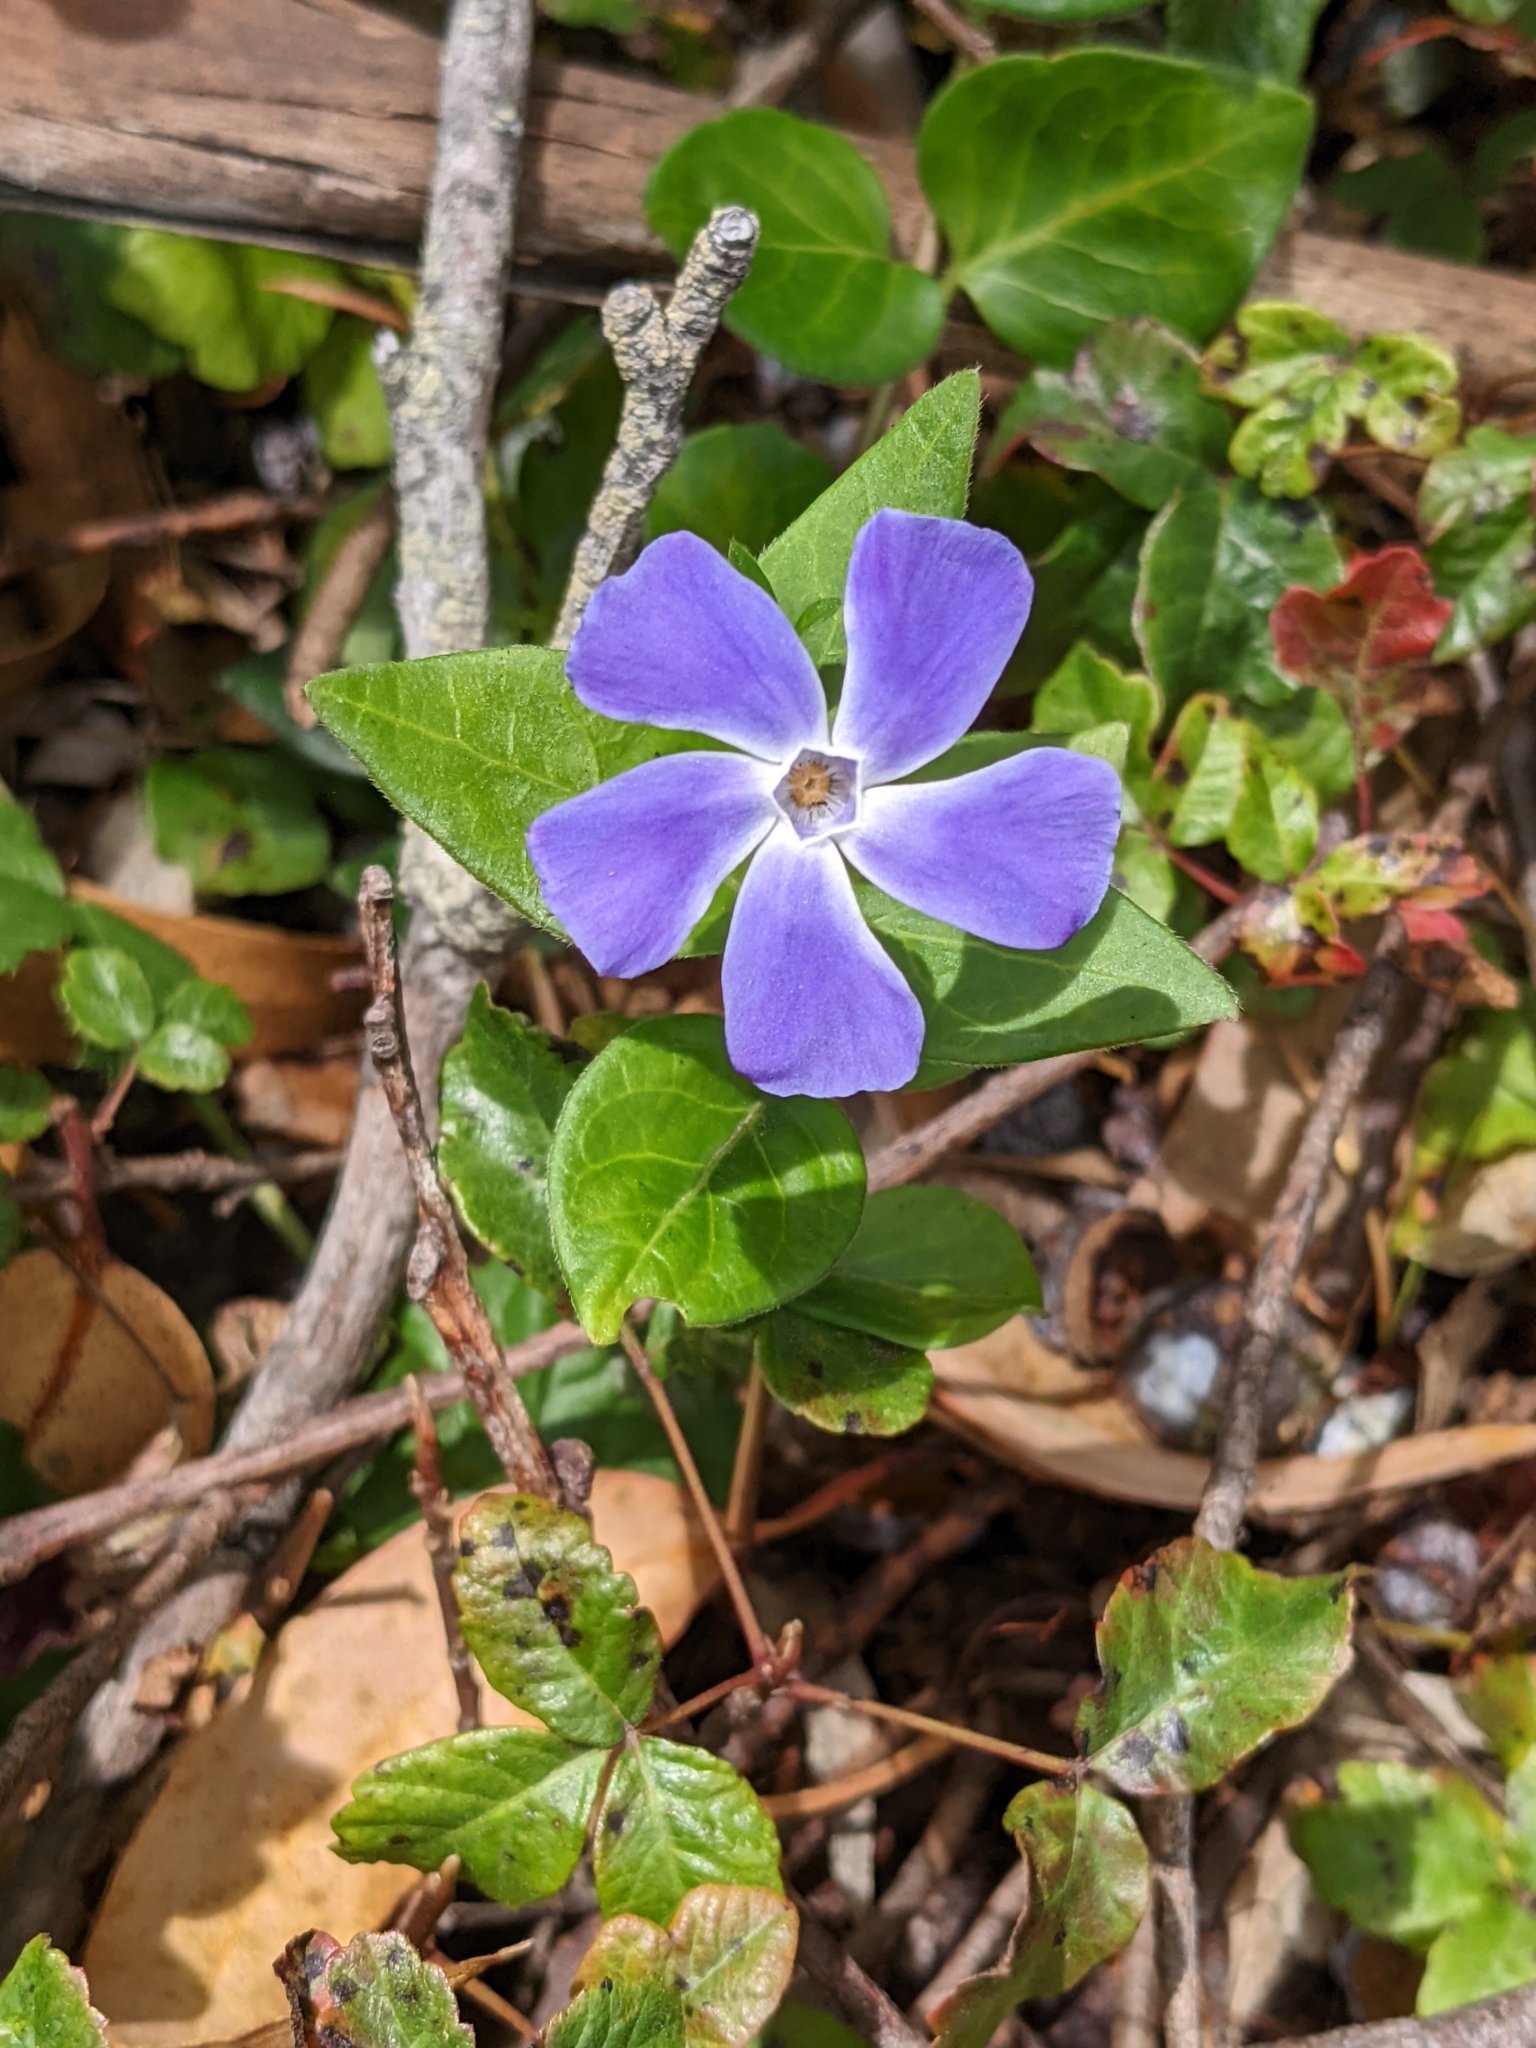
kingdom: Plantae
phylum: Tracheophyta
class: Magnoliopsida
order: Gentianales
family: Apocynaceae
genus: Vinca
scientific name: Vinca major
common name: Greater periwinkle
